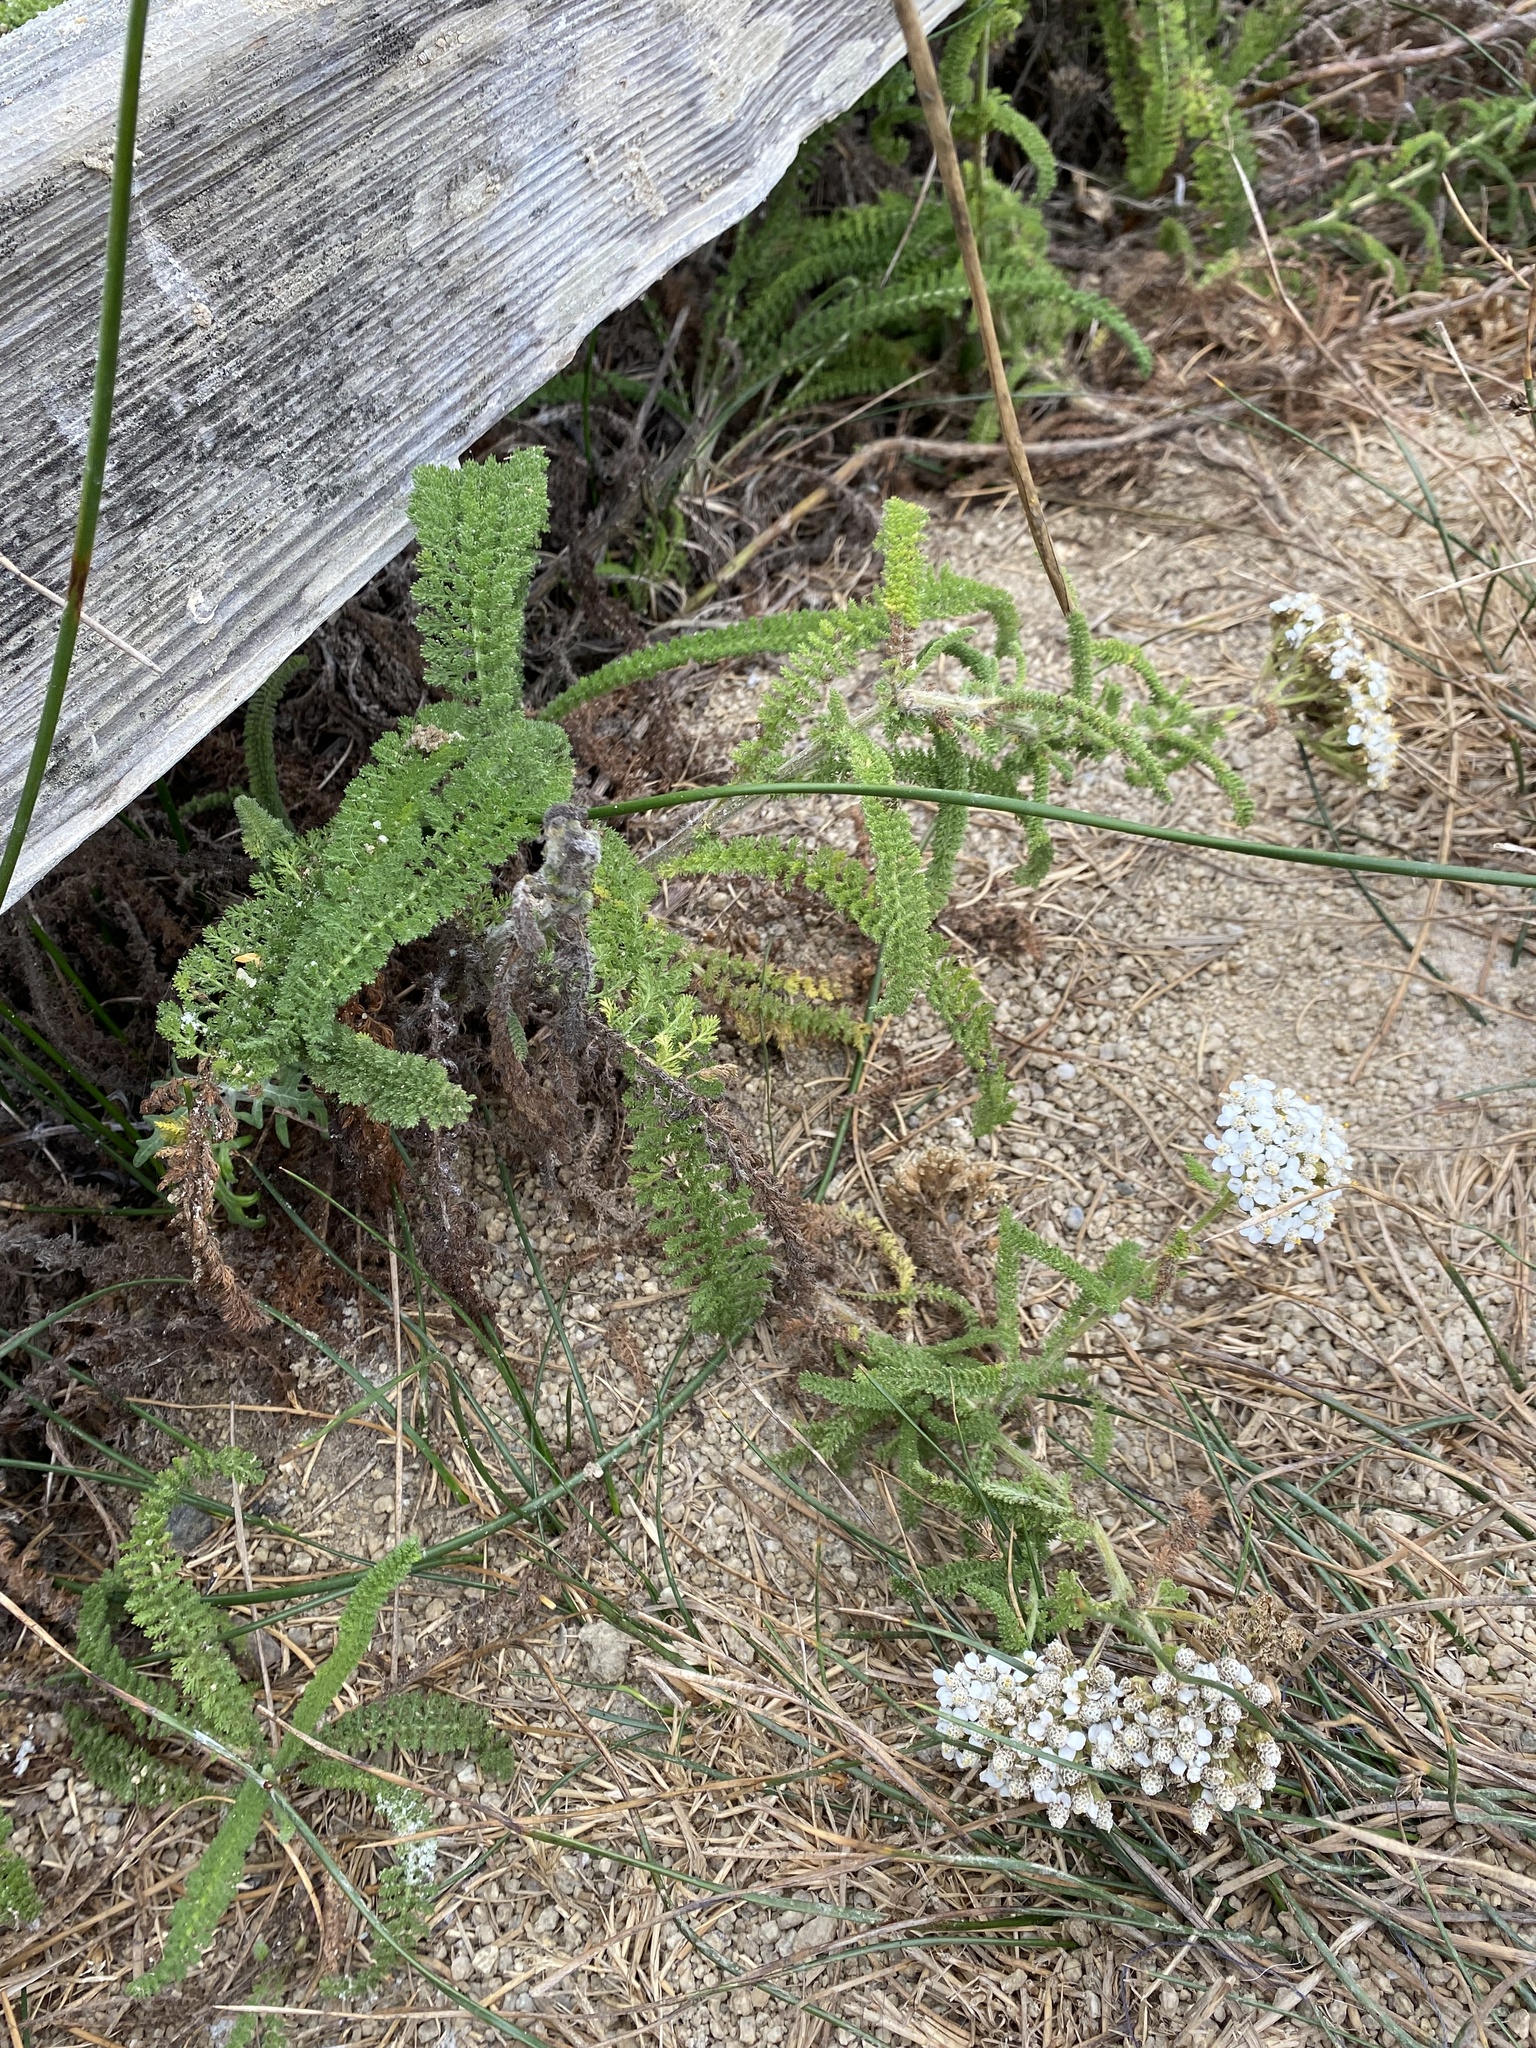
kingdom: Plantae
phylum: Tracheophyta
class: Magnoliopsida
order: Asterales
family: Asteraceae
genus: Achillea
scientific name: Achillea millefolium
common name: Yarrow
